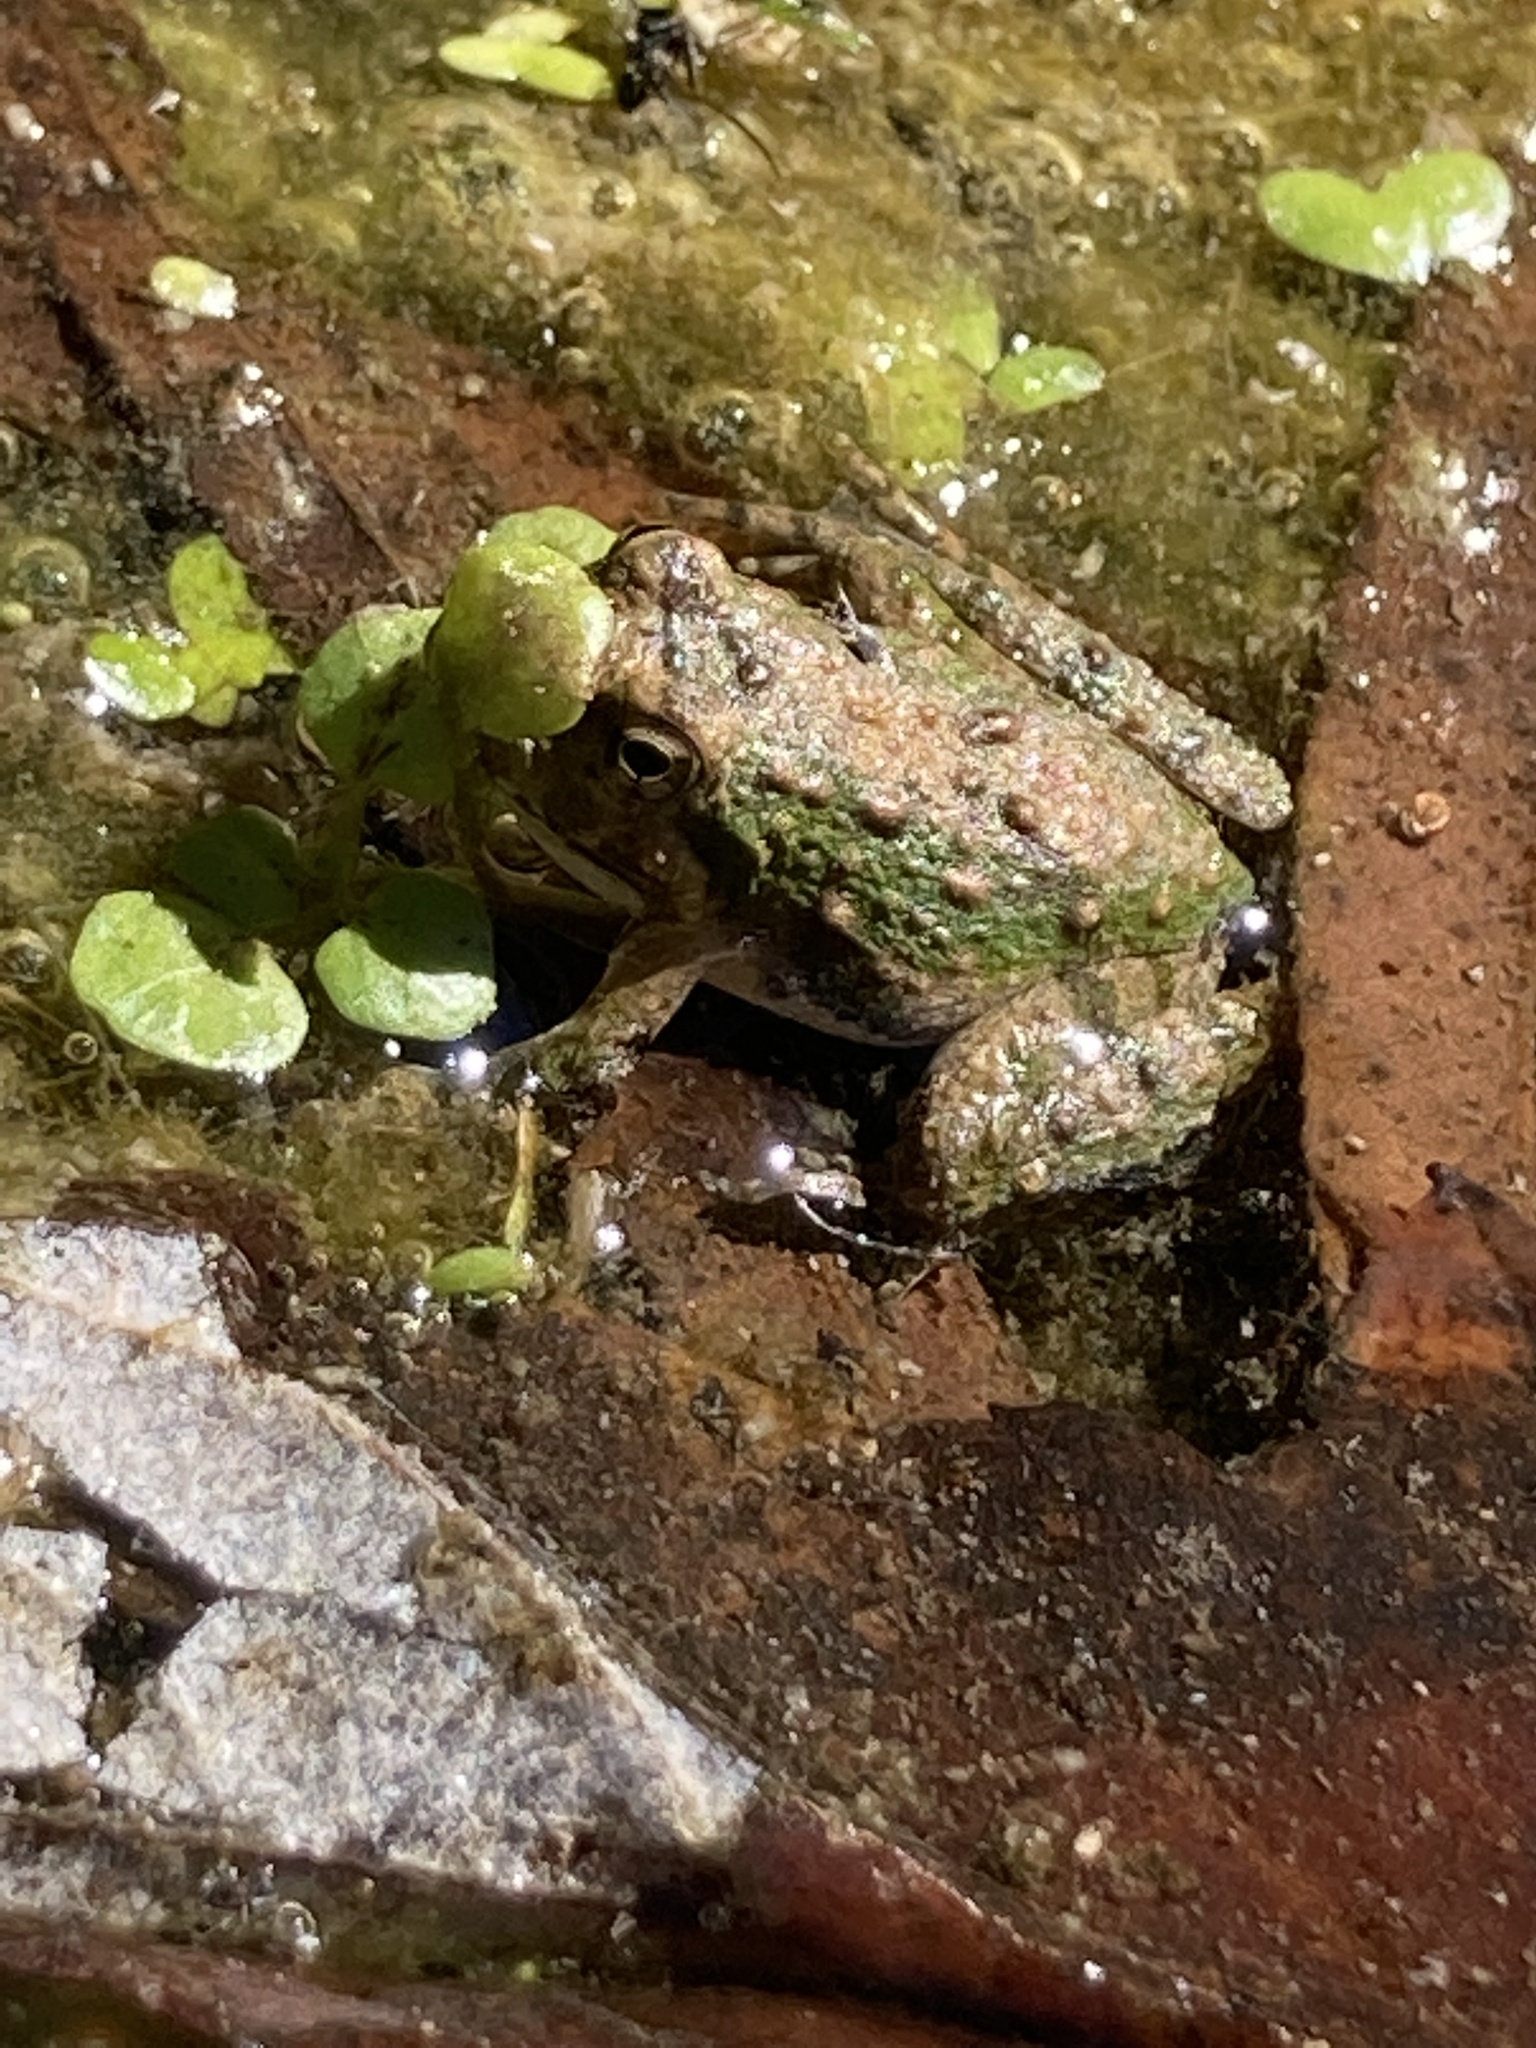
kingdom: Animalia
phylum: Chordata
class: Amphibia
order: Anura
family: Hylidae
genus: Acris
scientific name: Acris blanchardi
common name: Blanchard's cricket frog
